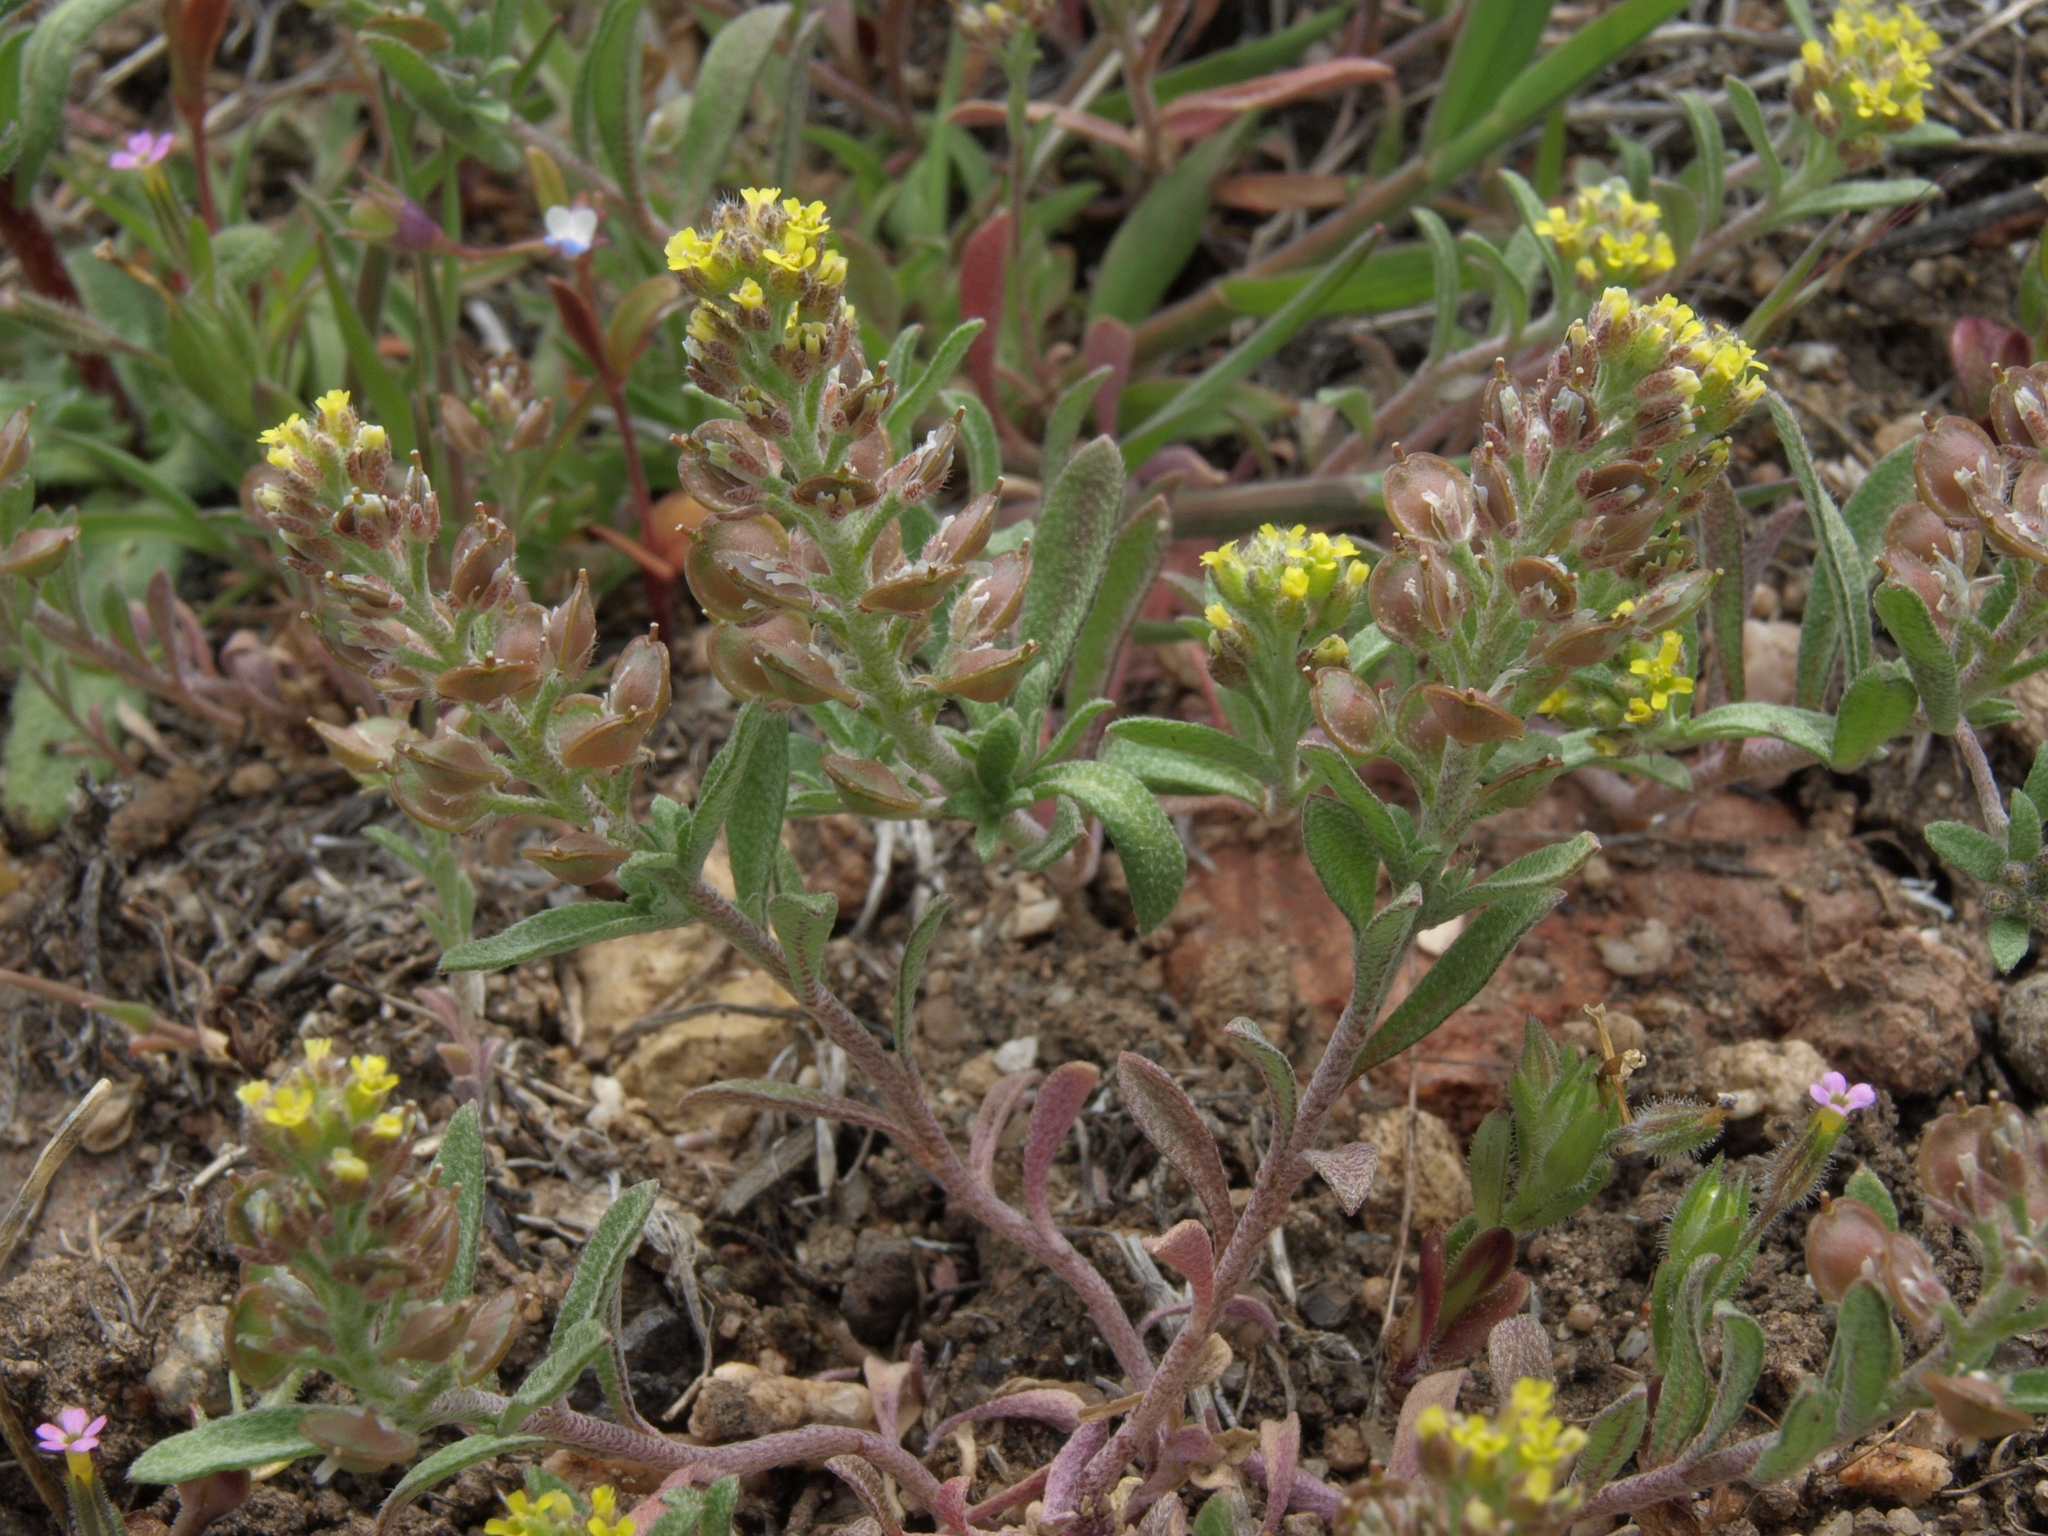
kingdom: Plantae
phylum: Tracheophyta
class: Magnoliopsida
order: Brassicales
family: Brassicaceae
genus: Alyssum
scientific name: Alyssum turkestanicum
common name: Desert alyssum
